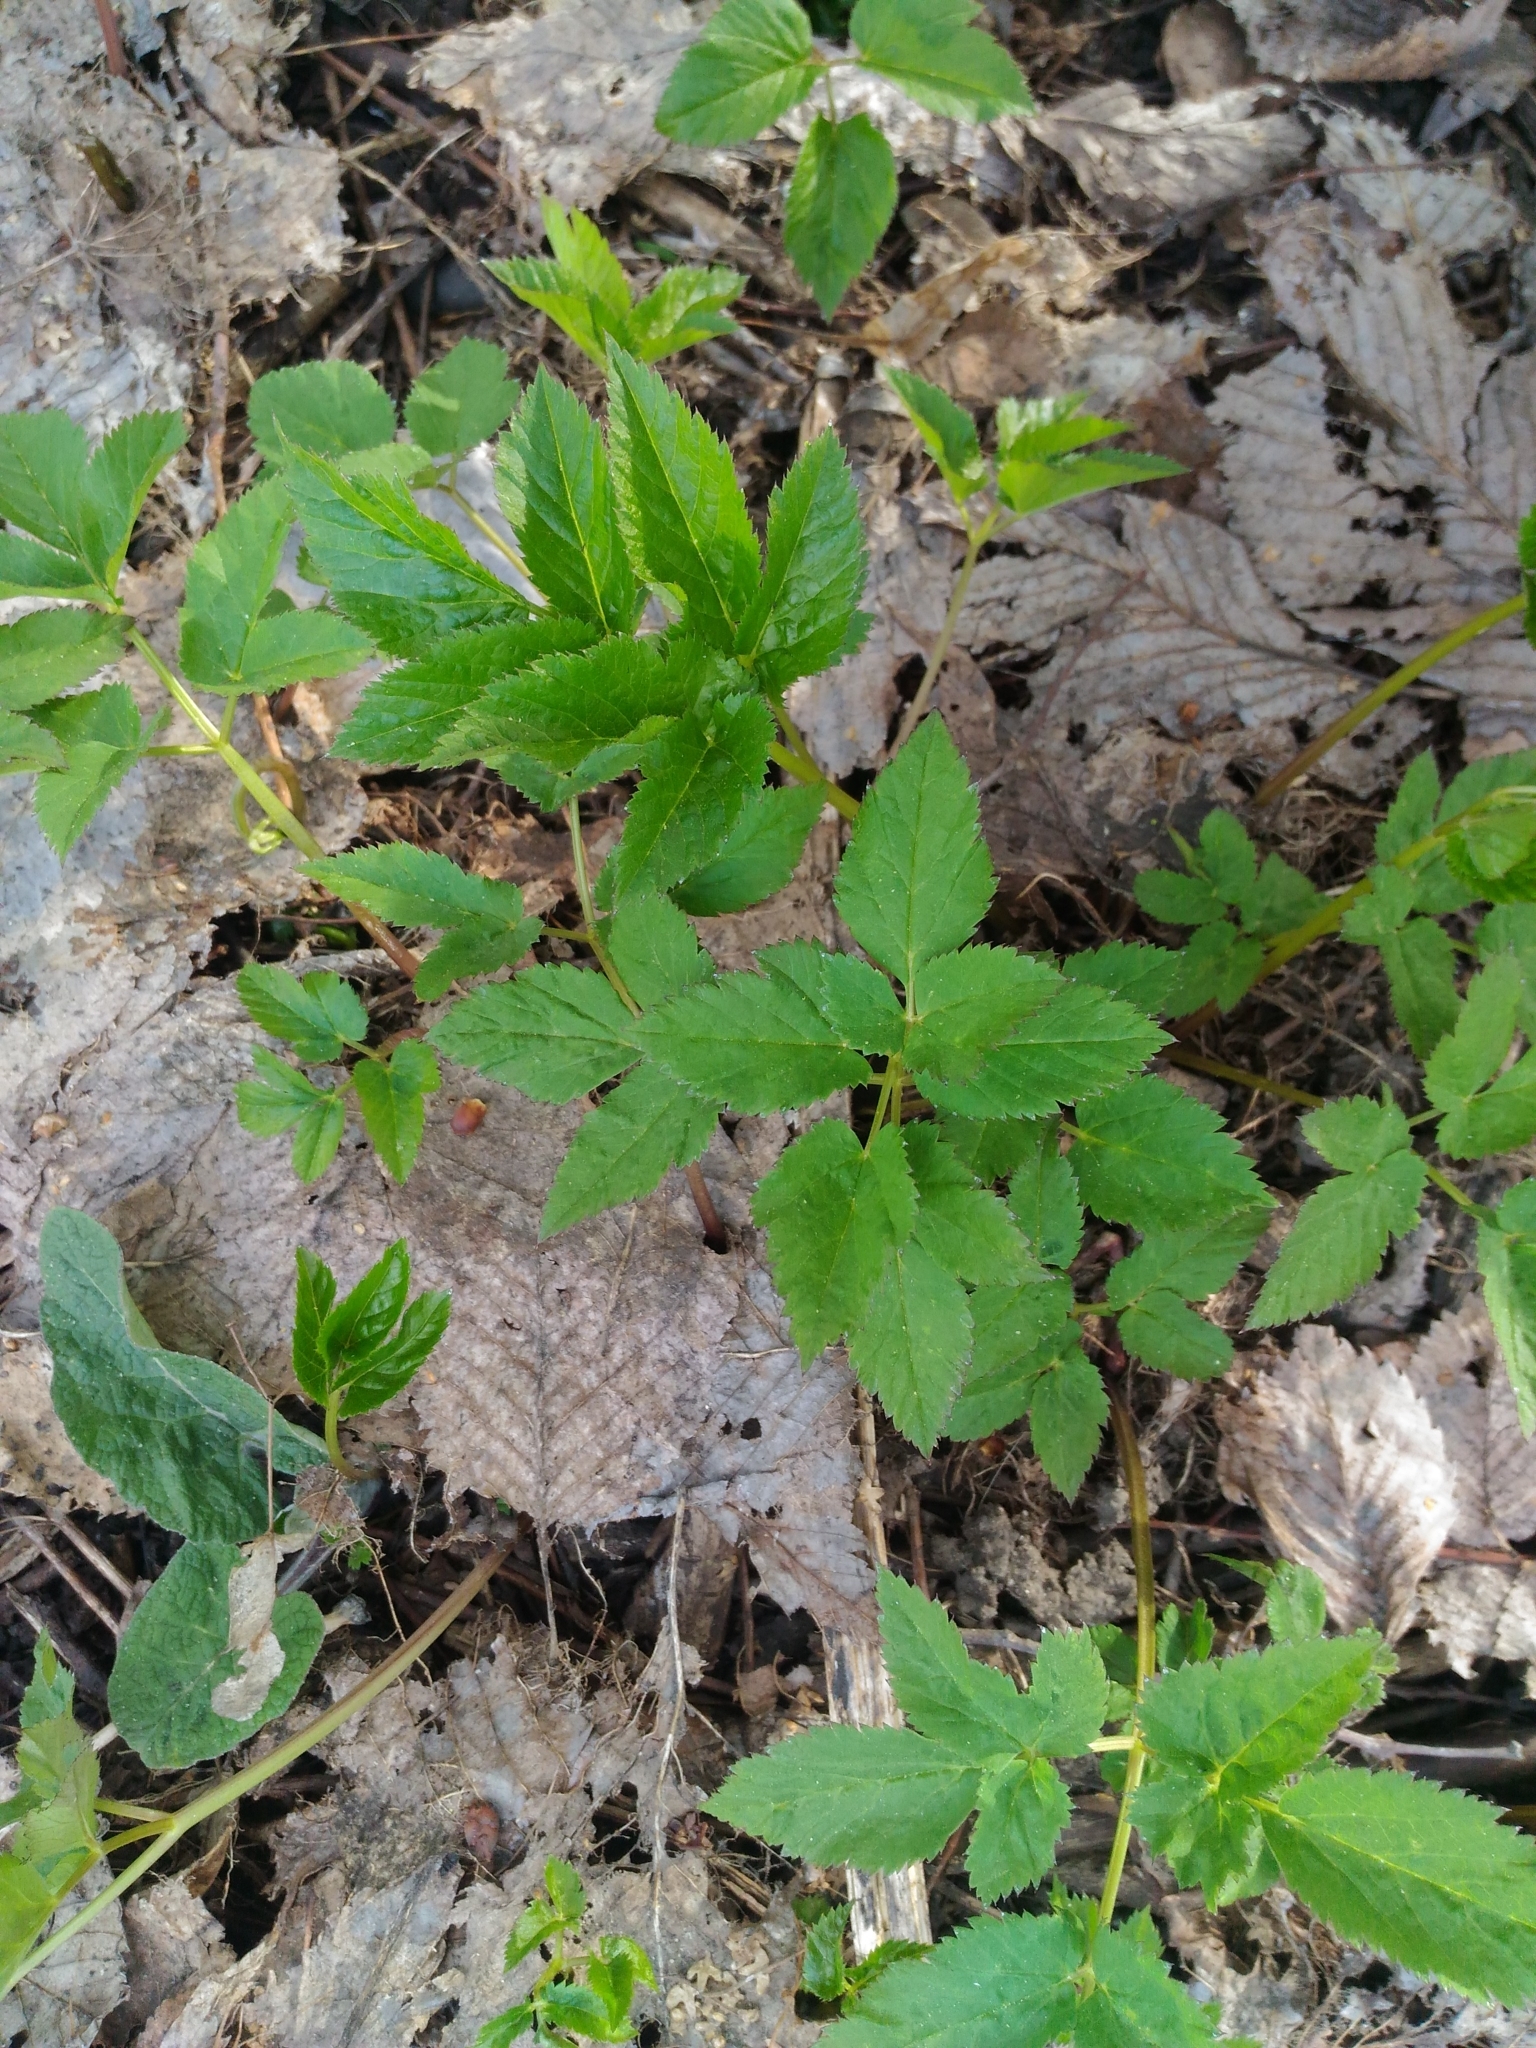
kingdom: Plantae
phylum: Tracheophyta
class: Magnoliopsida
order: Apiales
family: Apiaceae
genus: Aegopodium
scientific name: Aegopodium podagraria
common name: Ground-elder
